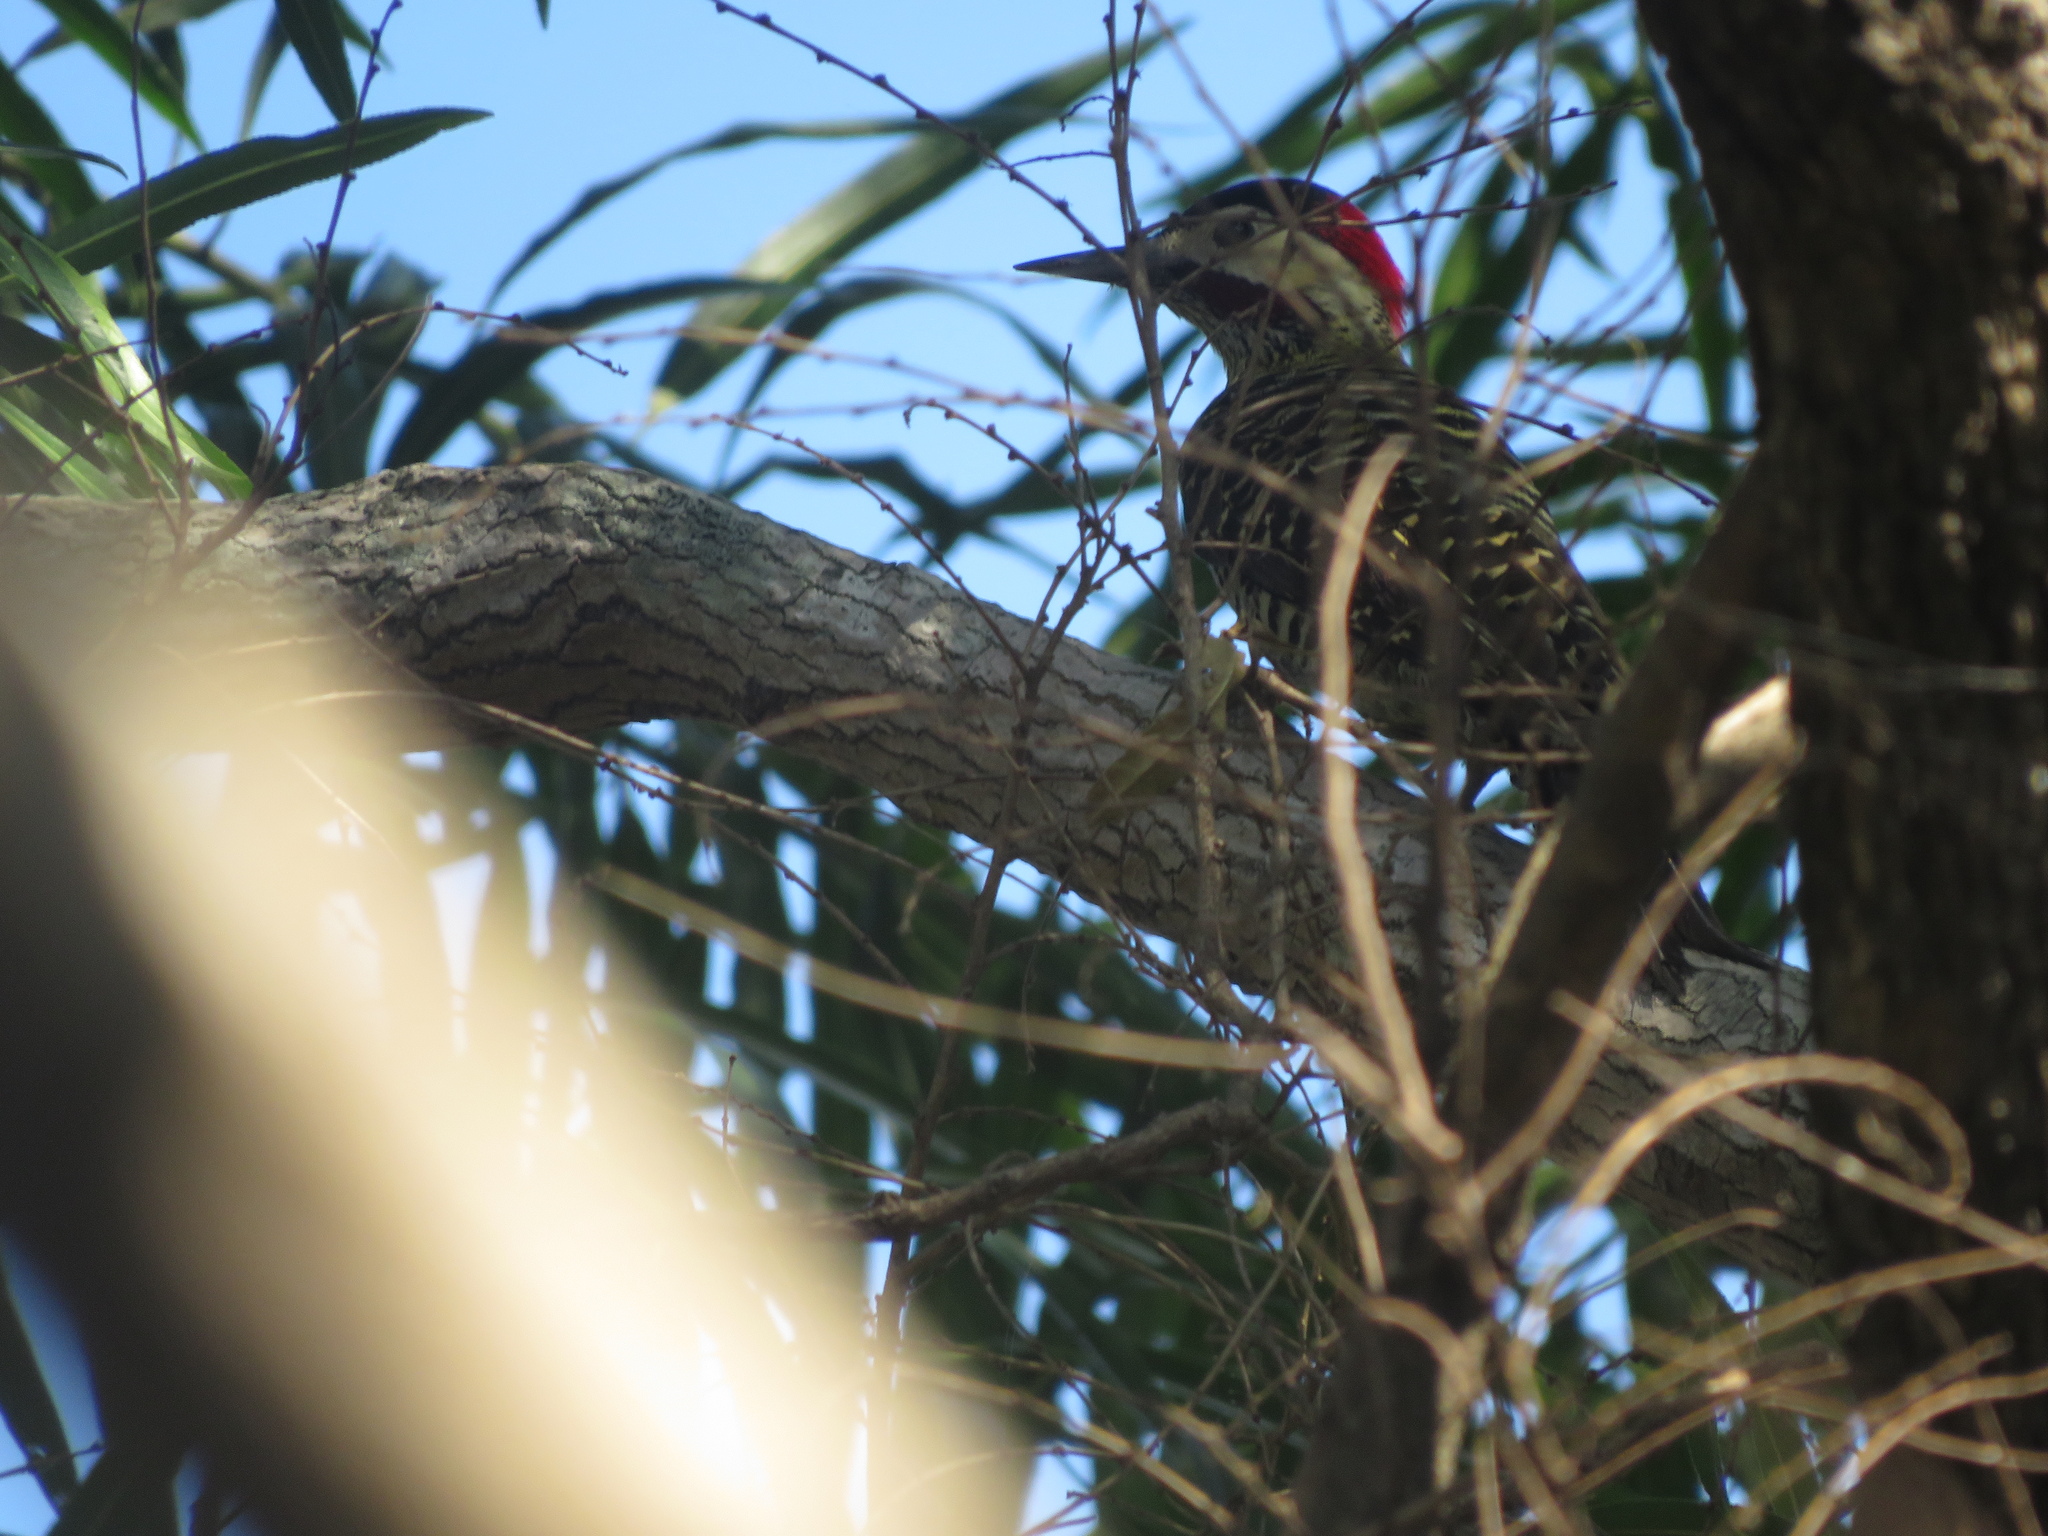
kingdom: Animalia
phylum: Chordata
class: Aves
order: Piciformes
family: Picidae
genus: Colaptes
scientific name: Colaptes melanochloros
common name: Green-barred woodpecker
